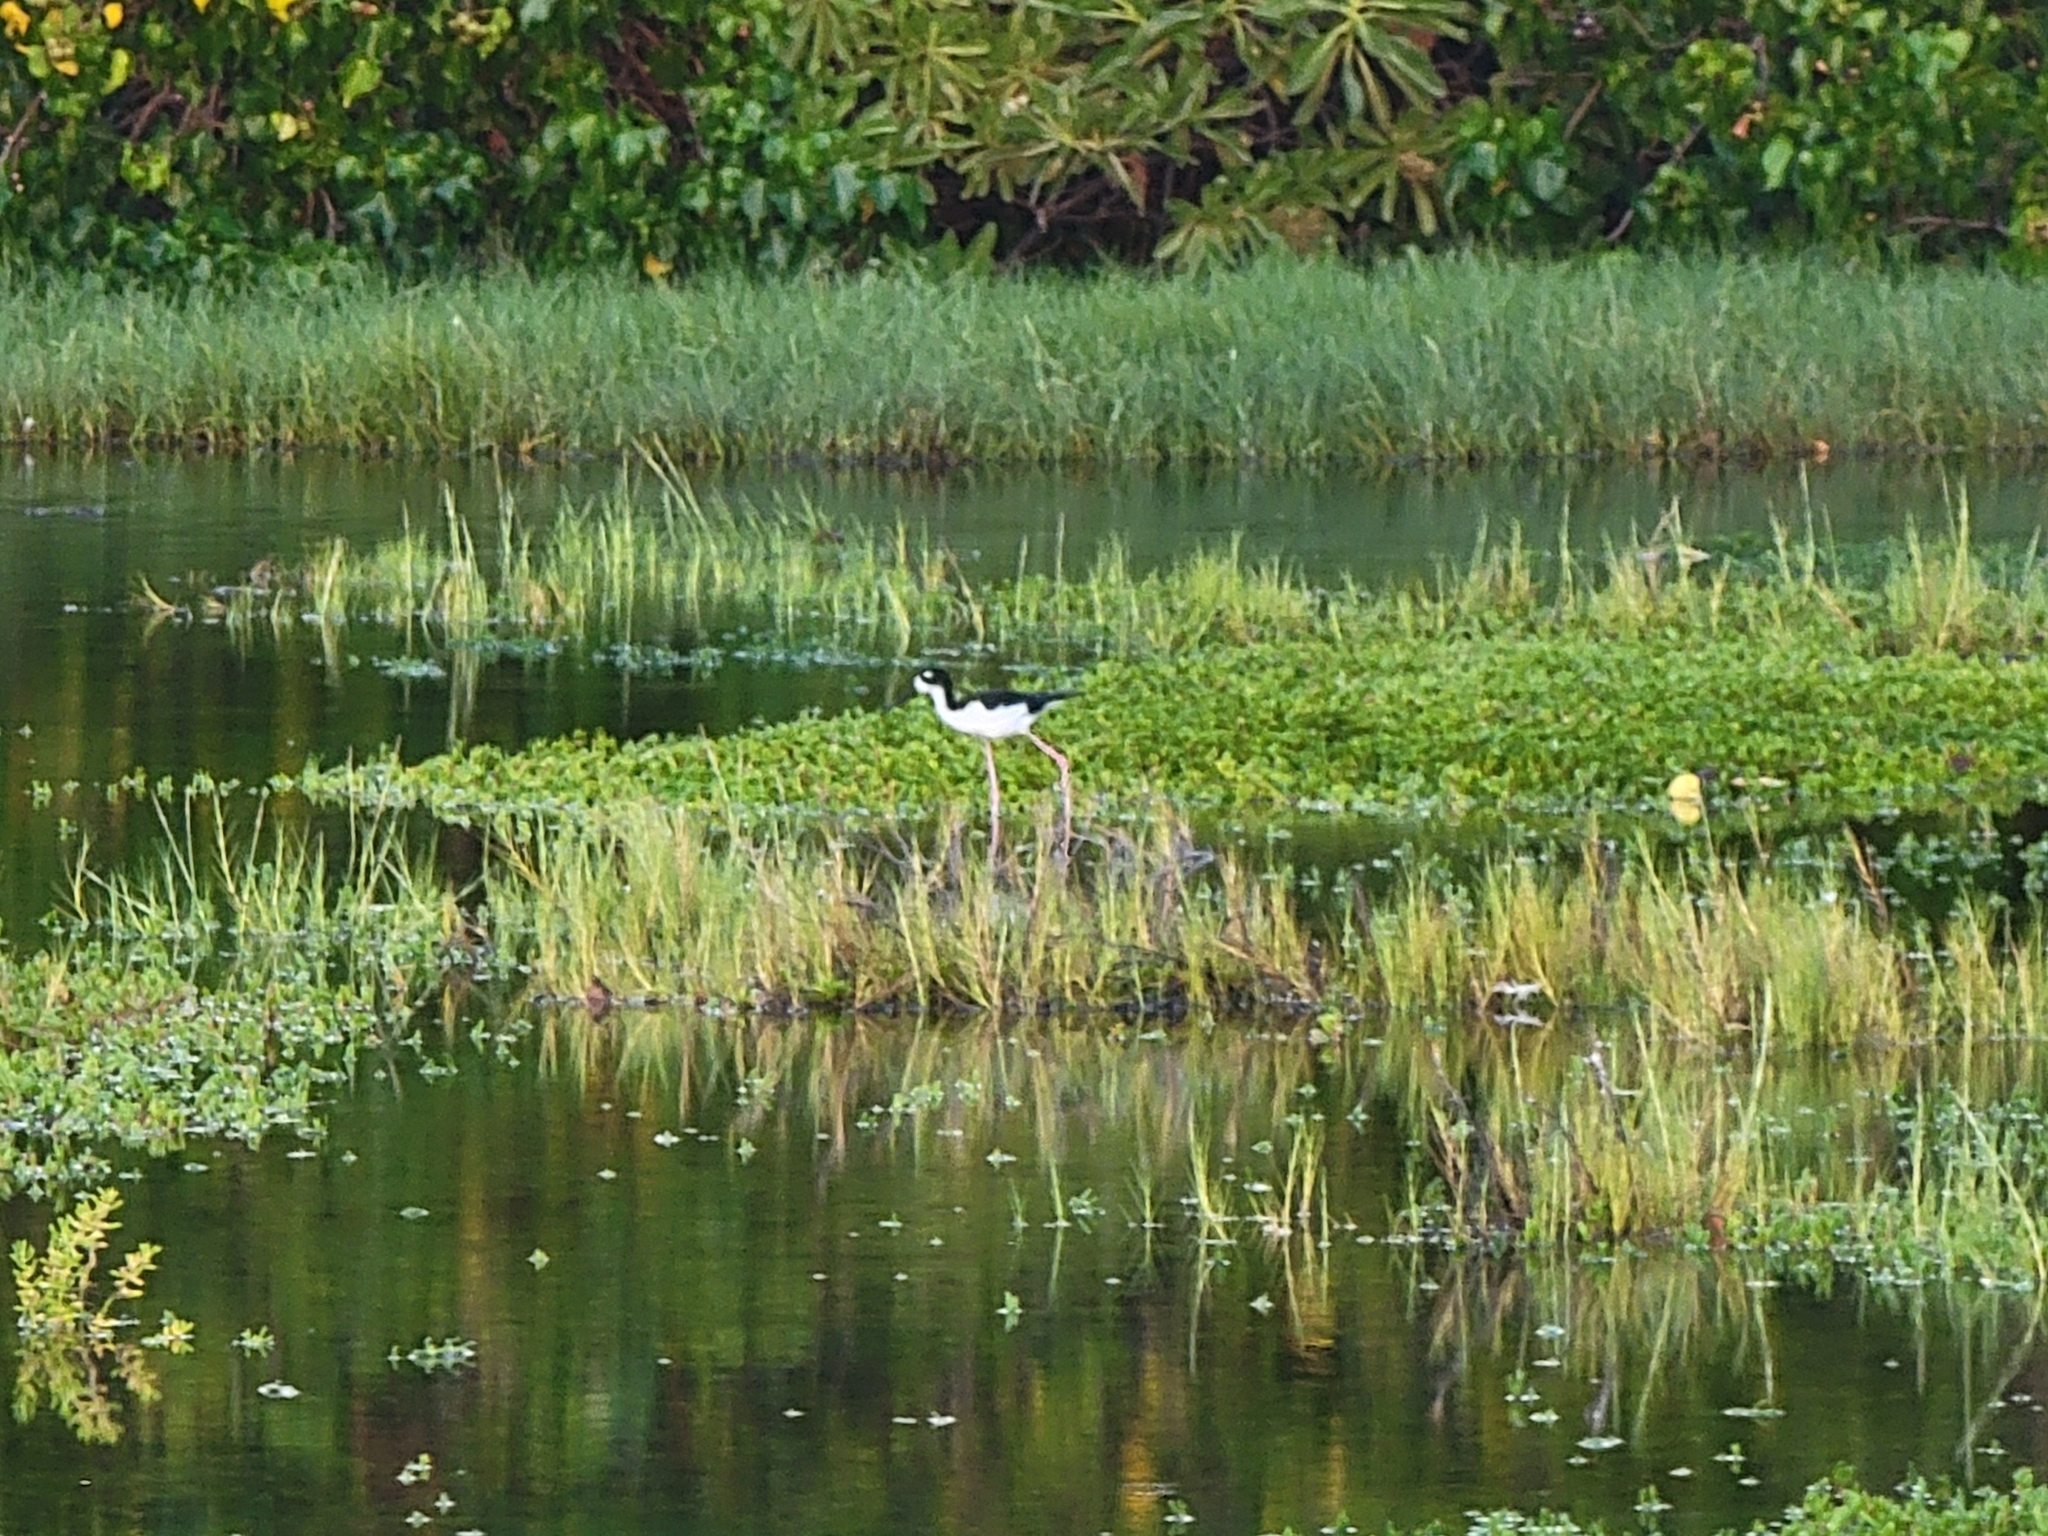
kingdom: Animalia
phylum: Chordata
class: Aves
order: Charadriiformes
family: Recurvirostridae
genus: Himantopus
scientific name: Himantopus mexicanus
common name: Black-necked stilt
